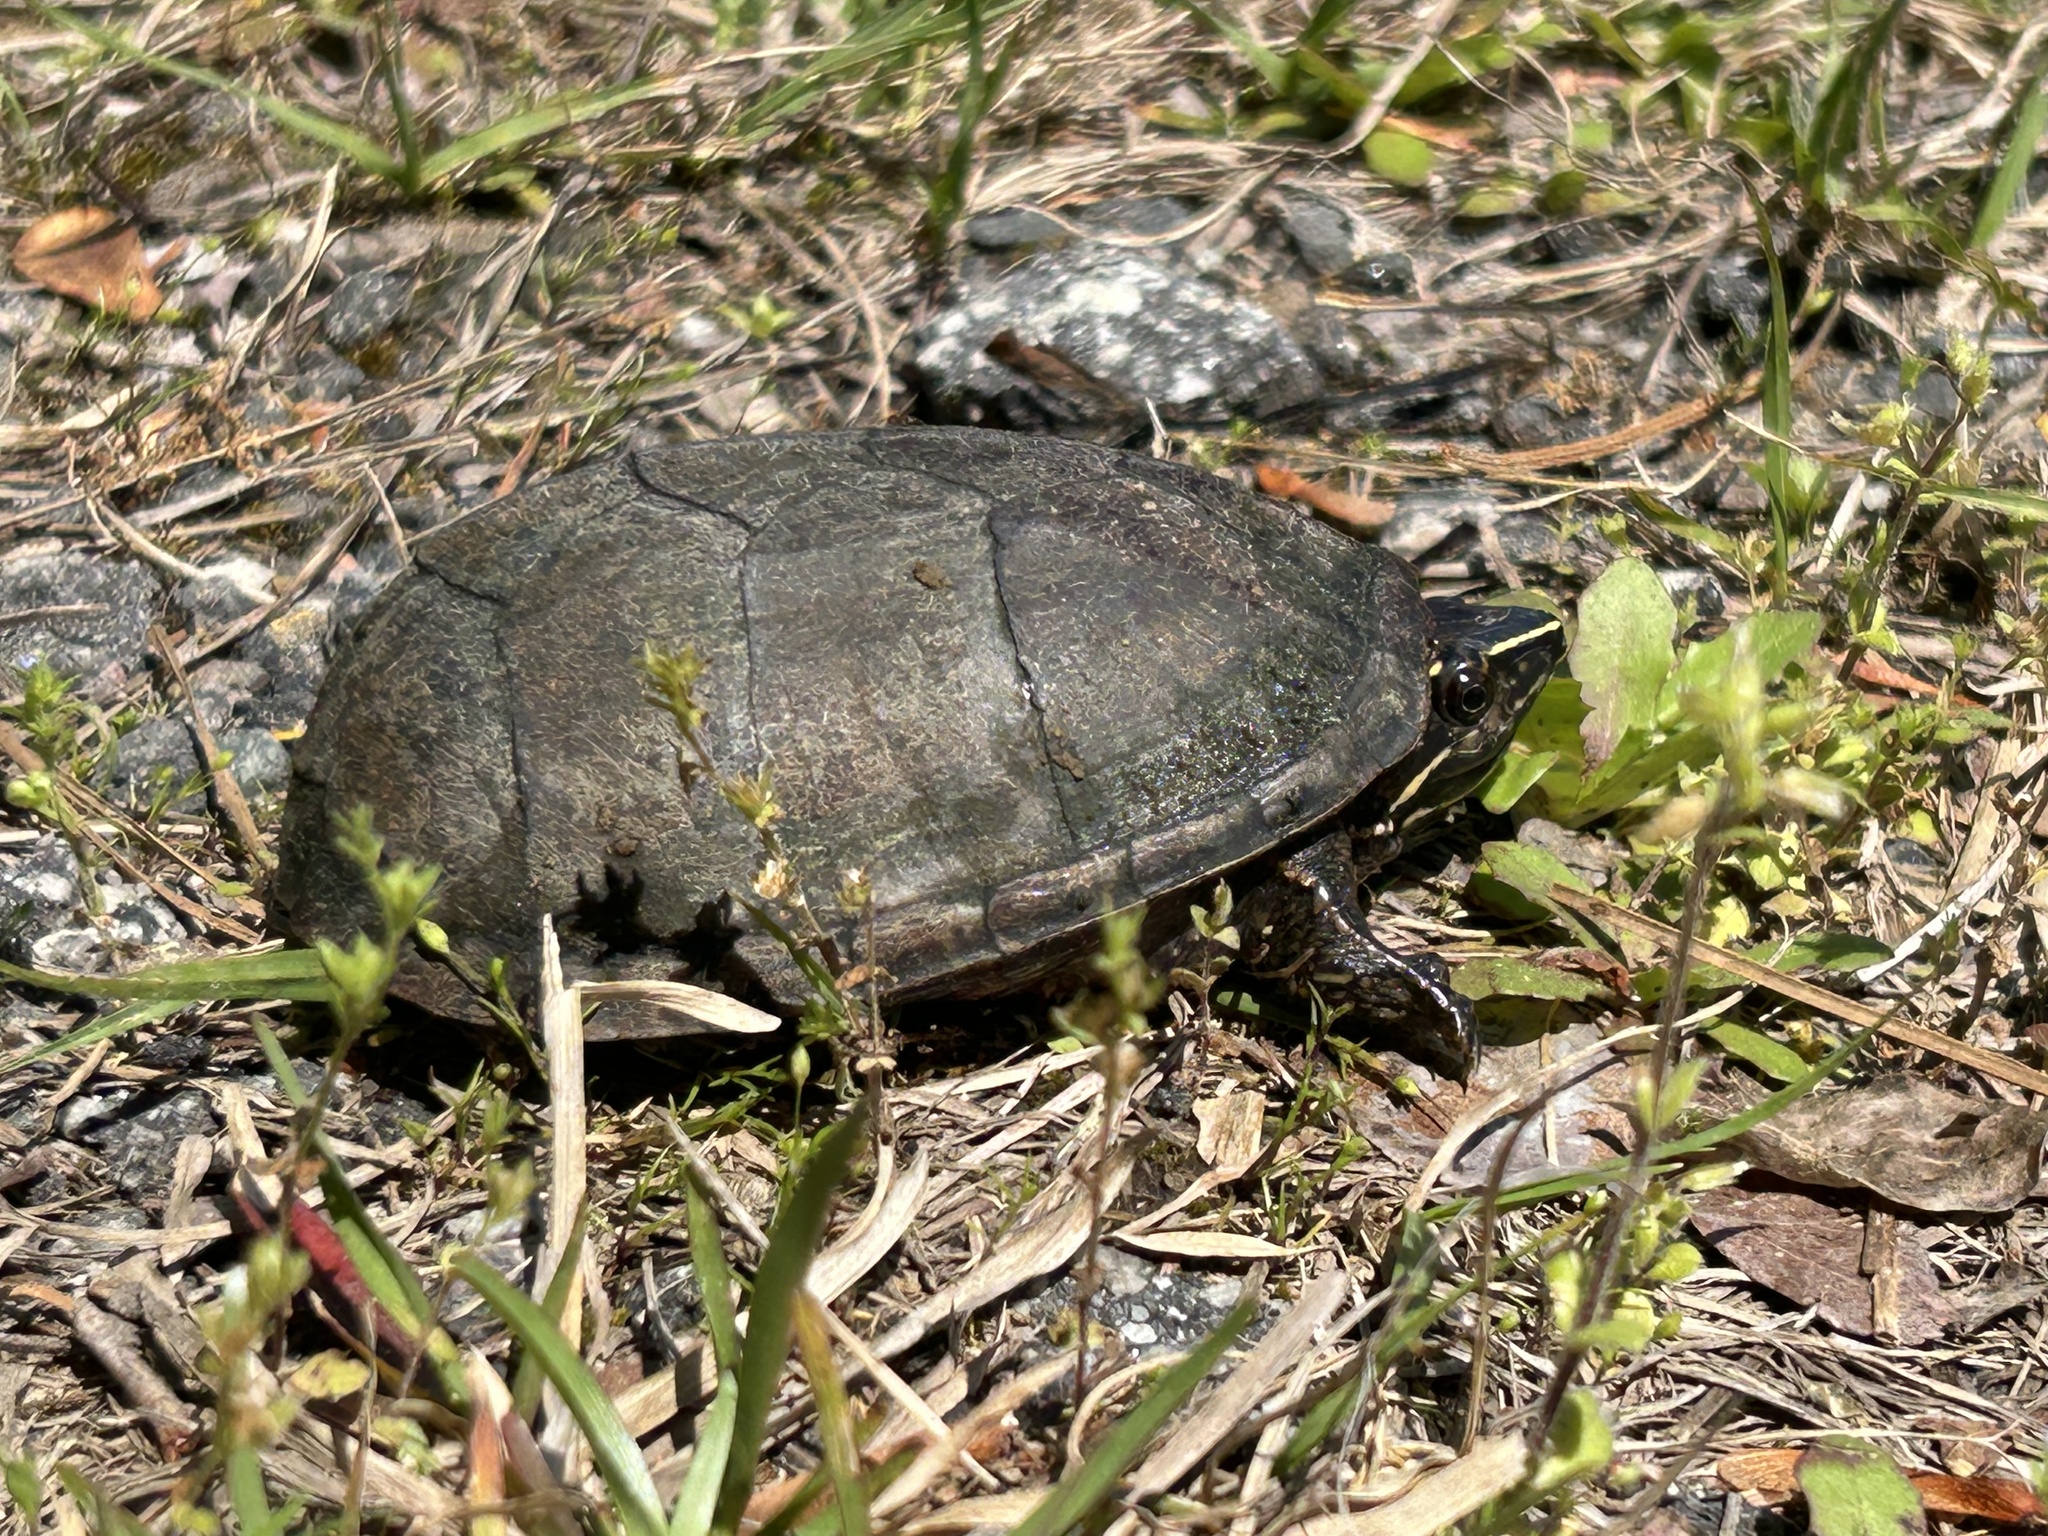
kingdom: Animalia
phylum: Chordata
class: Testudines
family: Kinosternidae
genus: Sternotherus
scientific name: Sternotherus odoratus
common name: Common musk turtle
